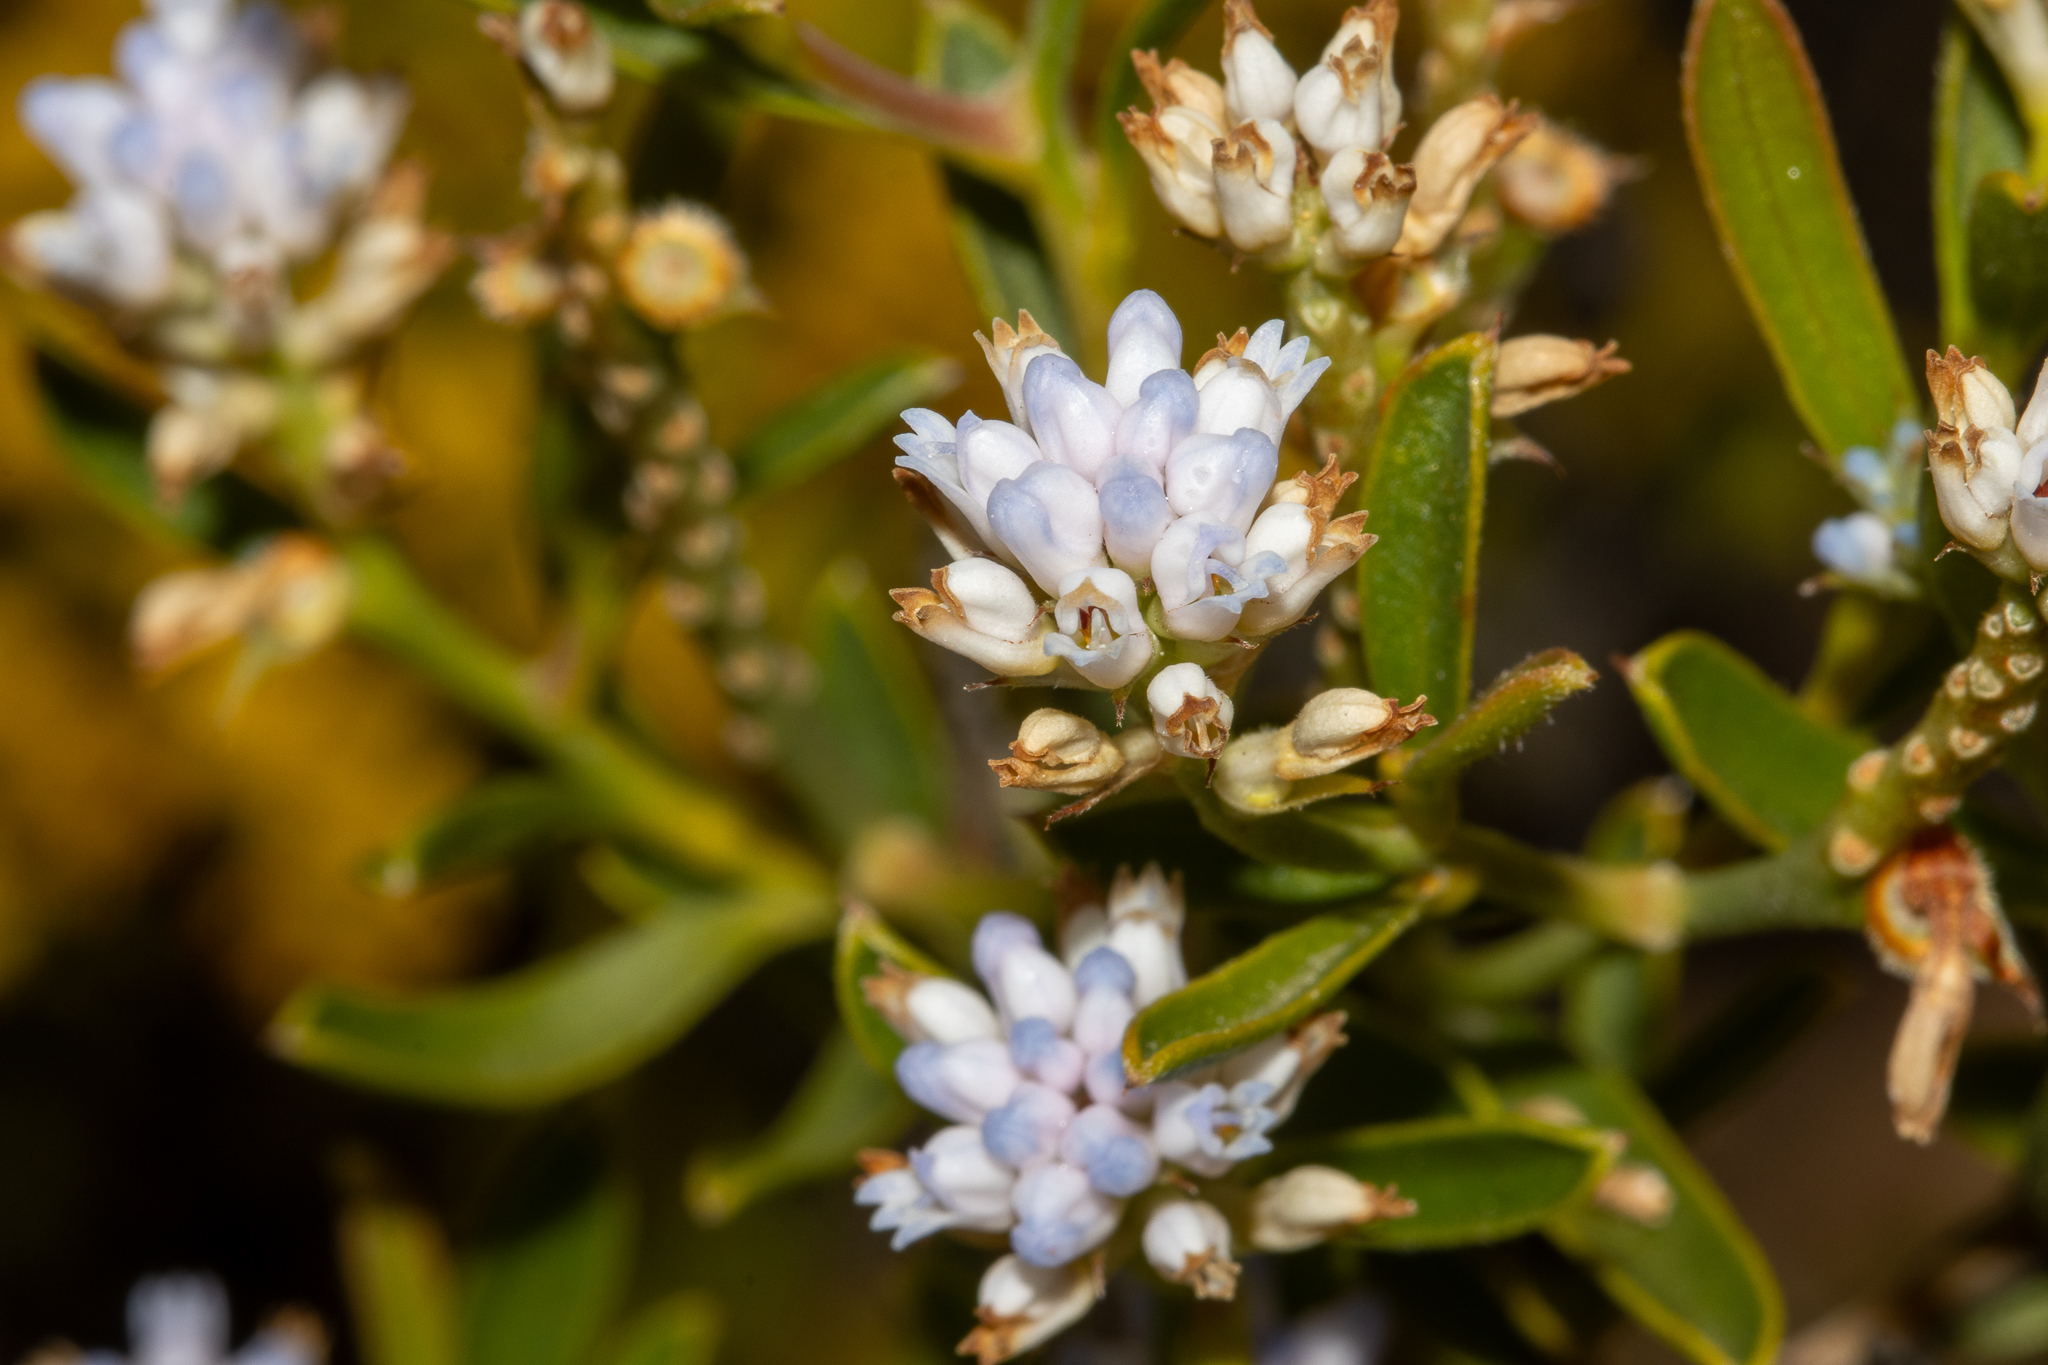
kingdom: Plantae
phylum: Tracheophyta
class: Magnoliopsida
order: Proteales
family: Proteaceae
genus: Conospermum
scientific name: Conospermum nervosum
